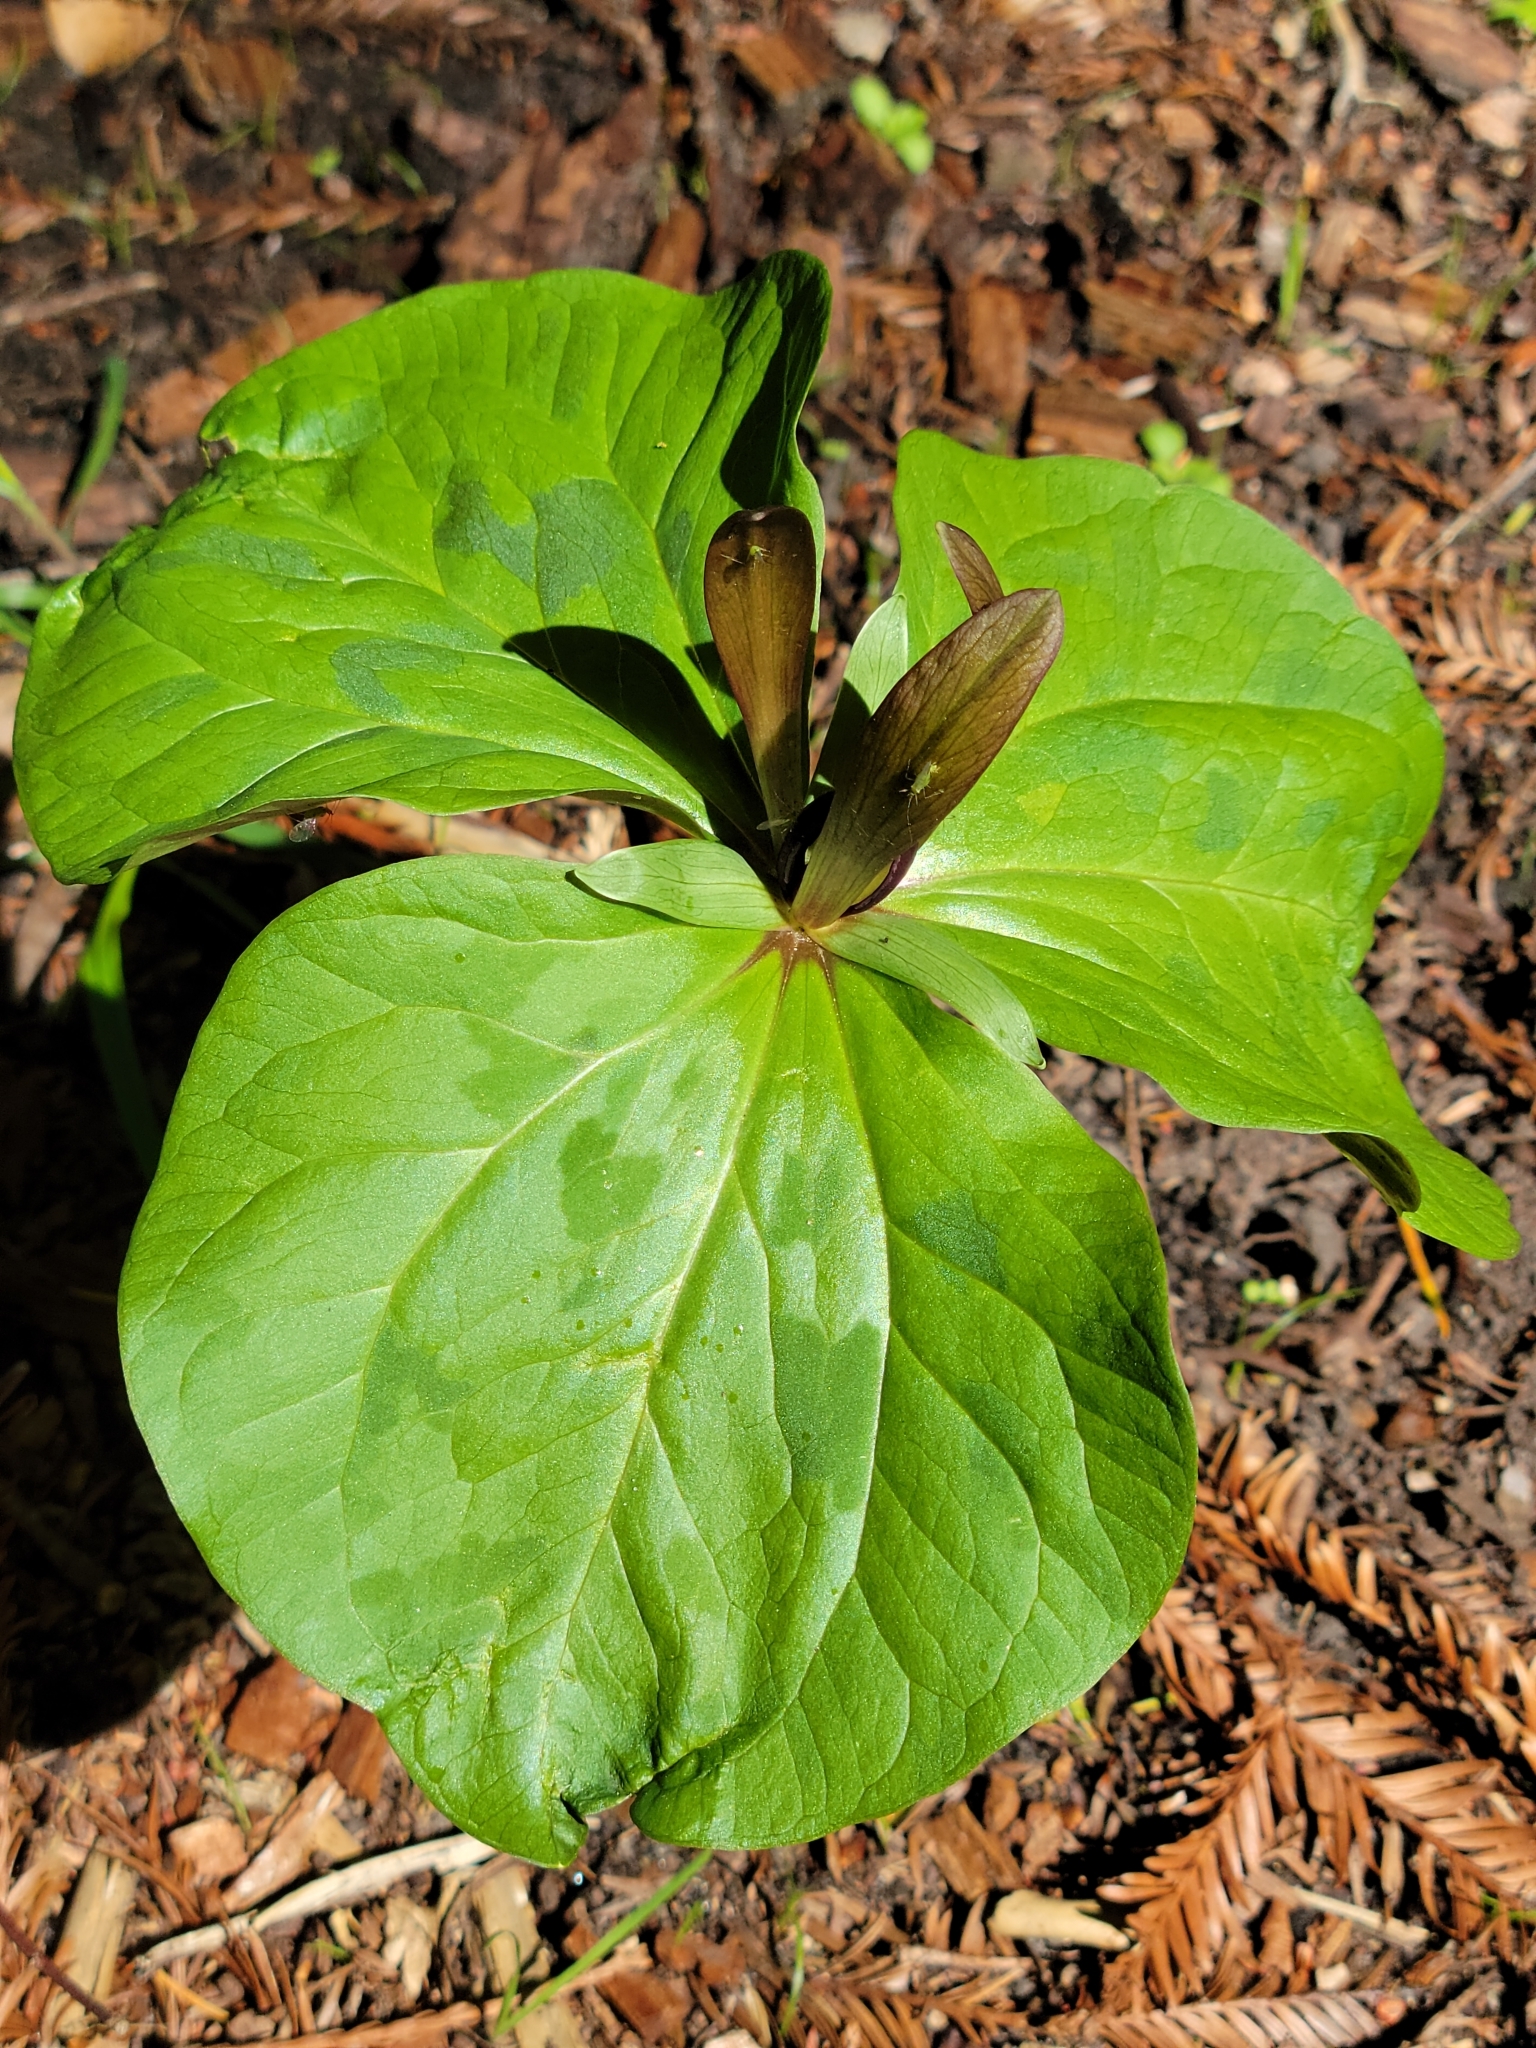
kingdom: Plantae
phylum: Tracheophyta
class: Liliopsida
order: Liliales
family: Melanthiaceae
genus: Trillium
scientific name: Trillium chloropetalum
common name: Giant trillium
